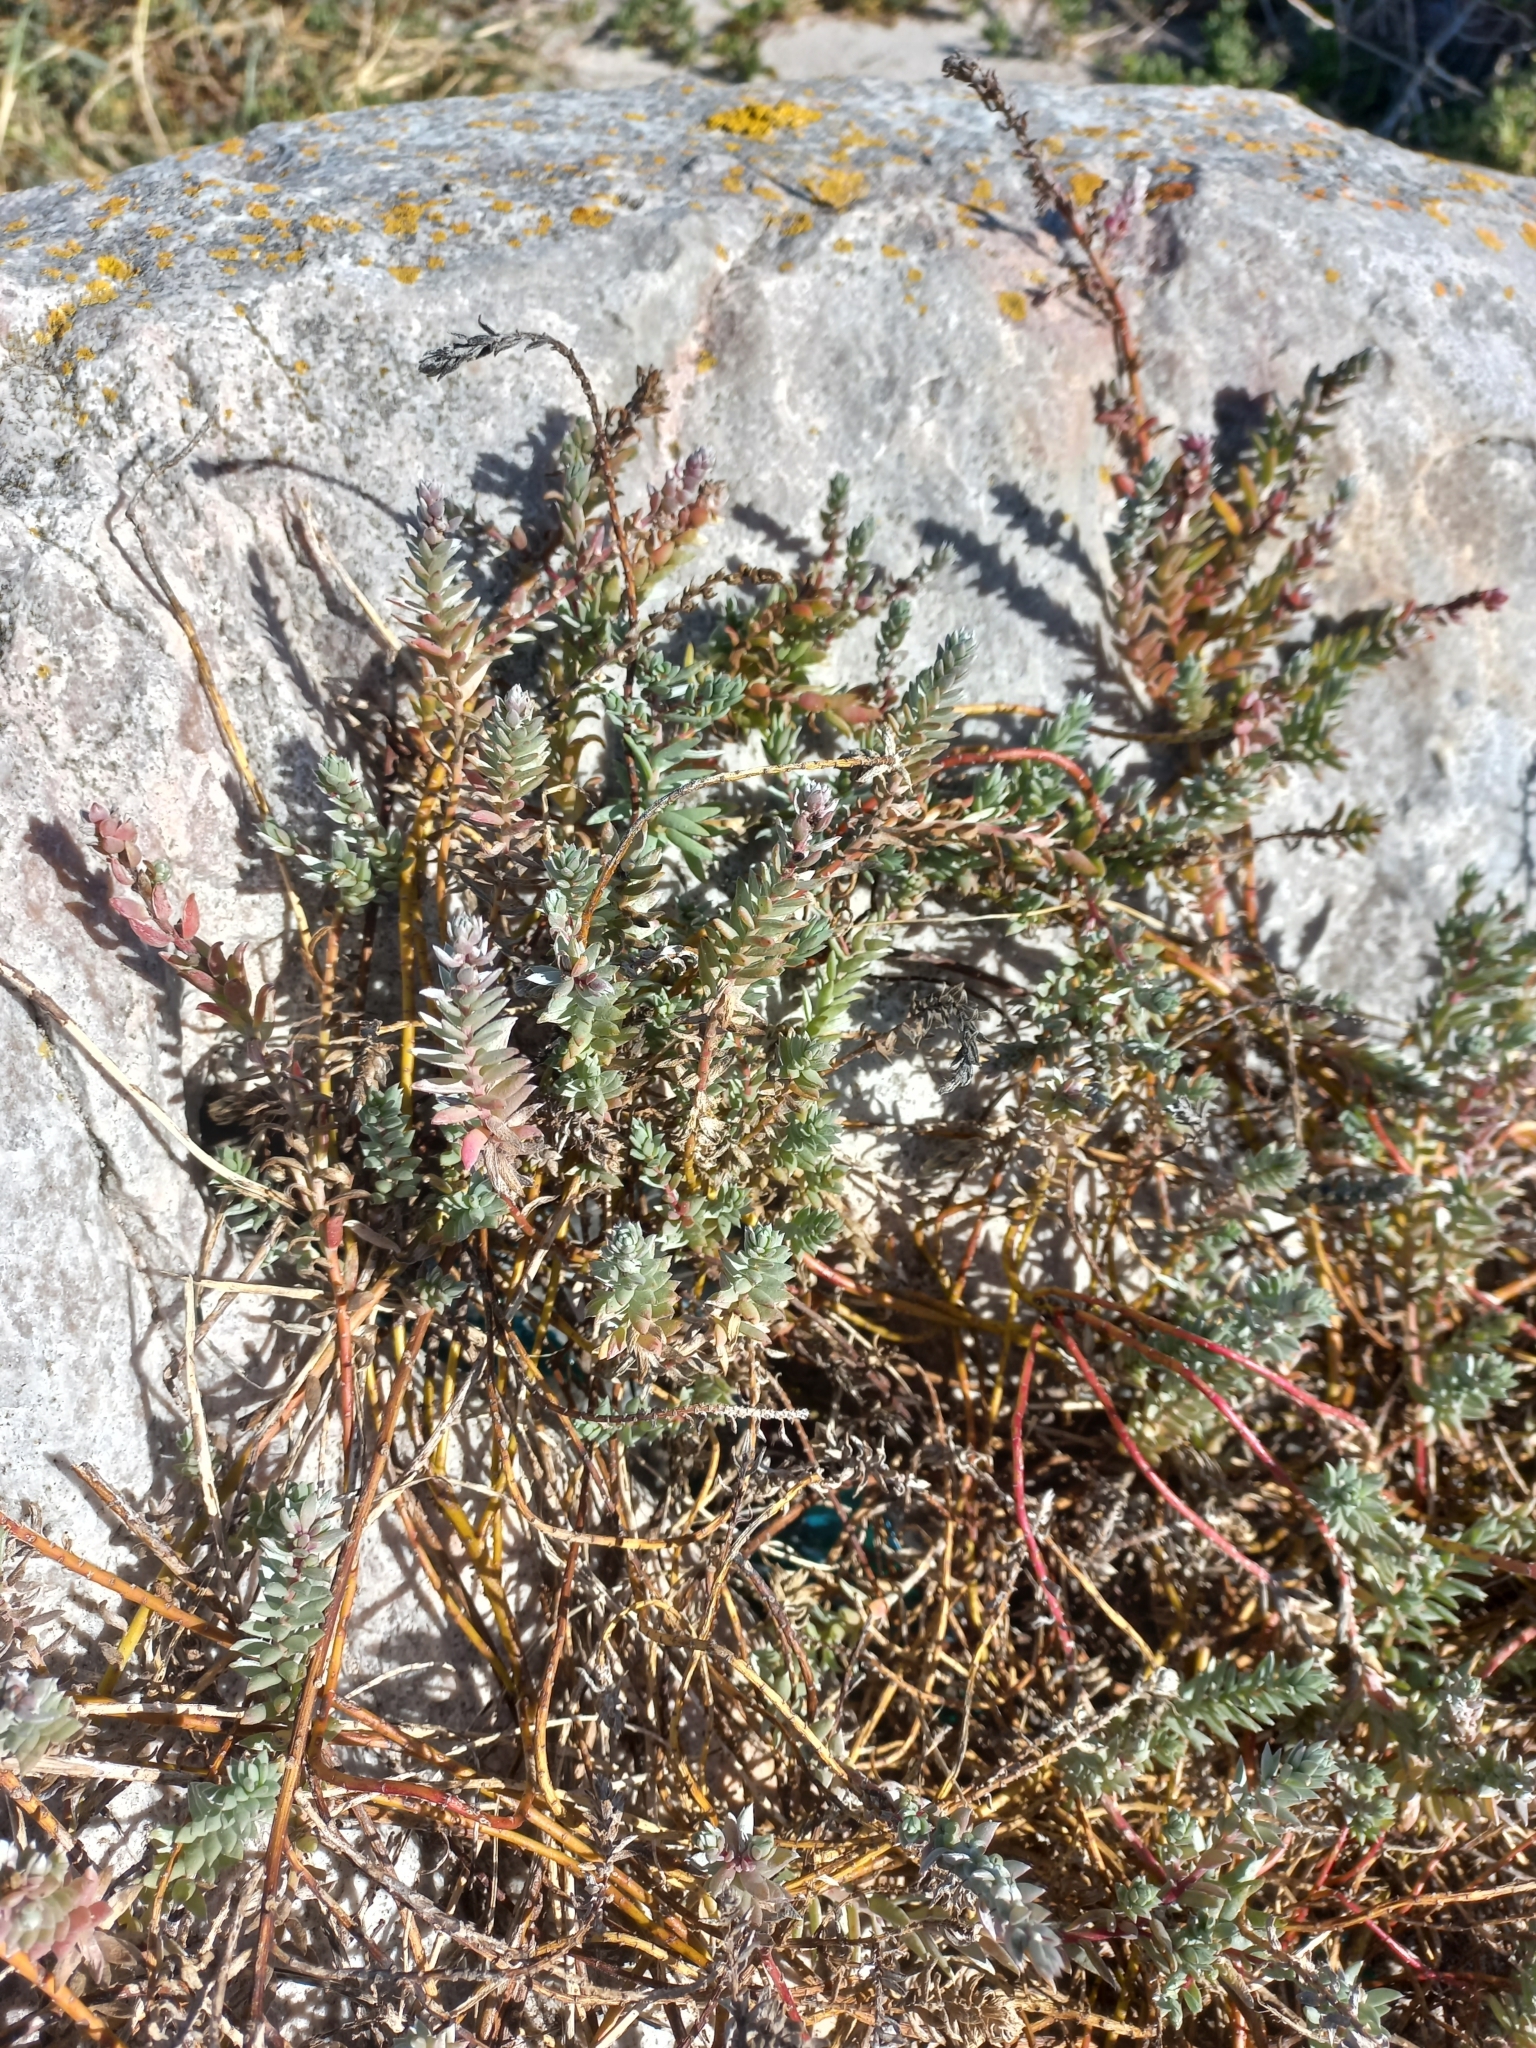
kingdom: Plantae
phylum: Tracheophyta
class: Magnoliopsida
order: Caryophyllales
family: Amaranthaceae
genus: Chenolea
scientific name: Chenolea diffusa
